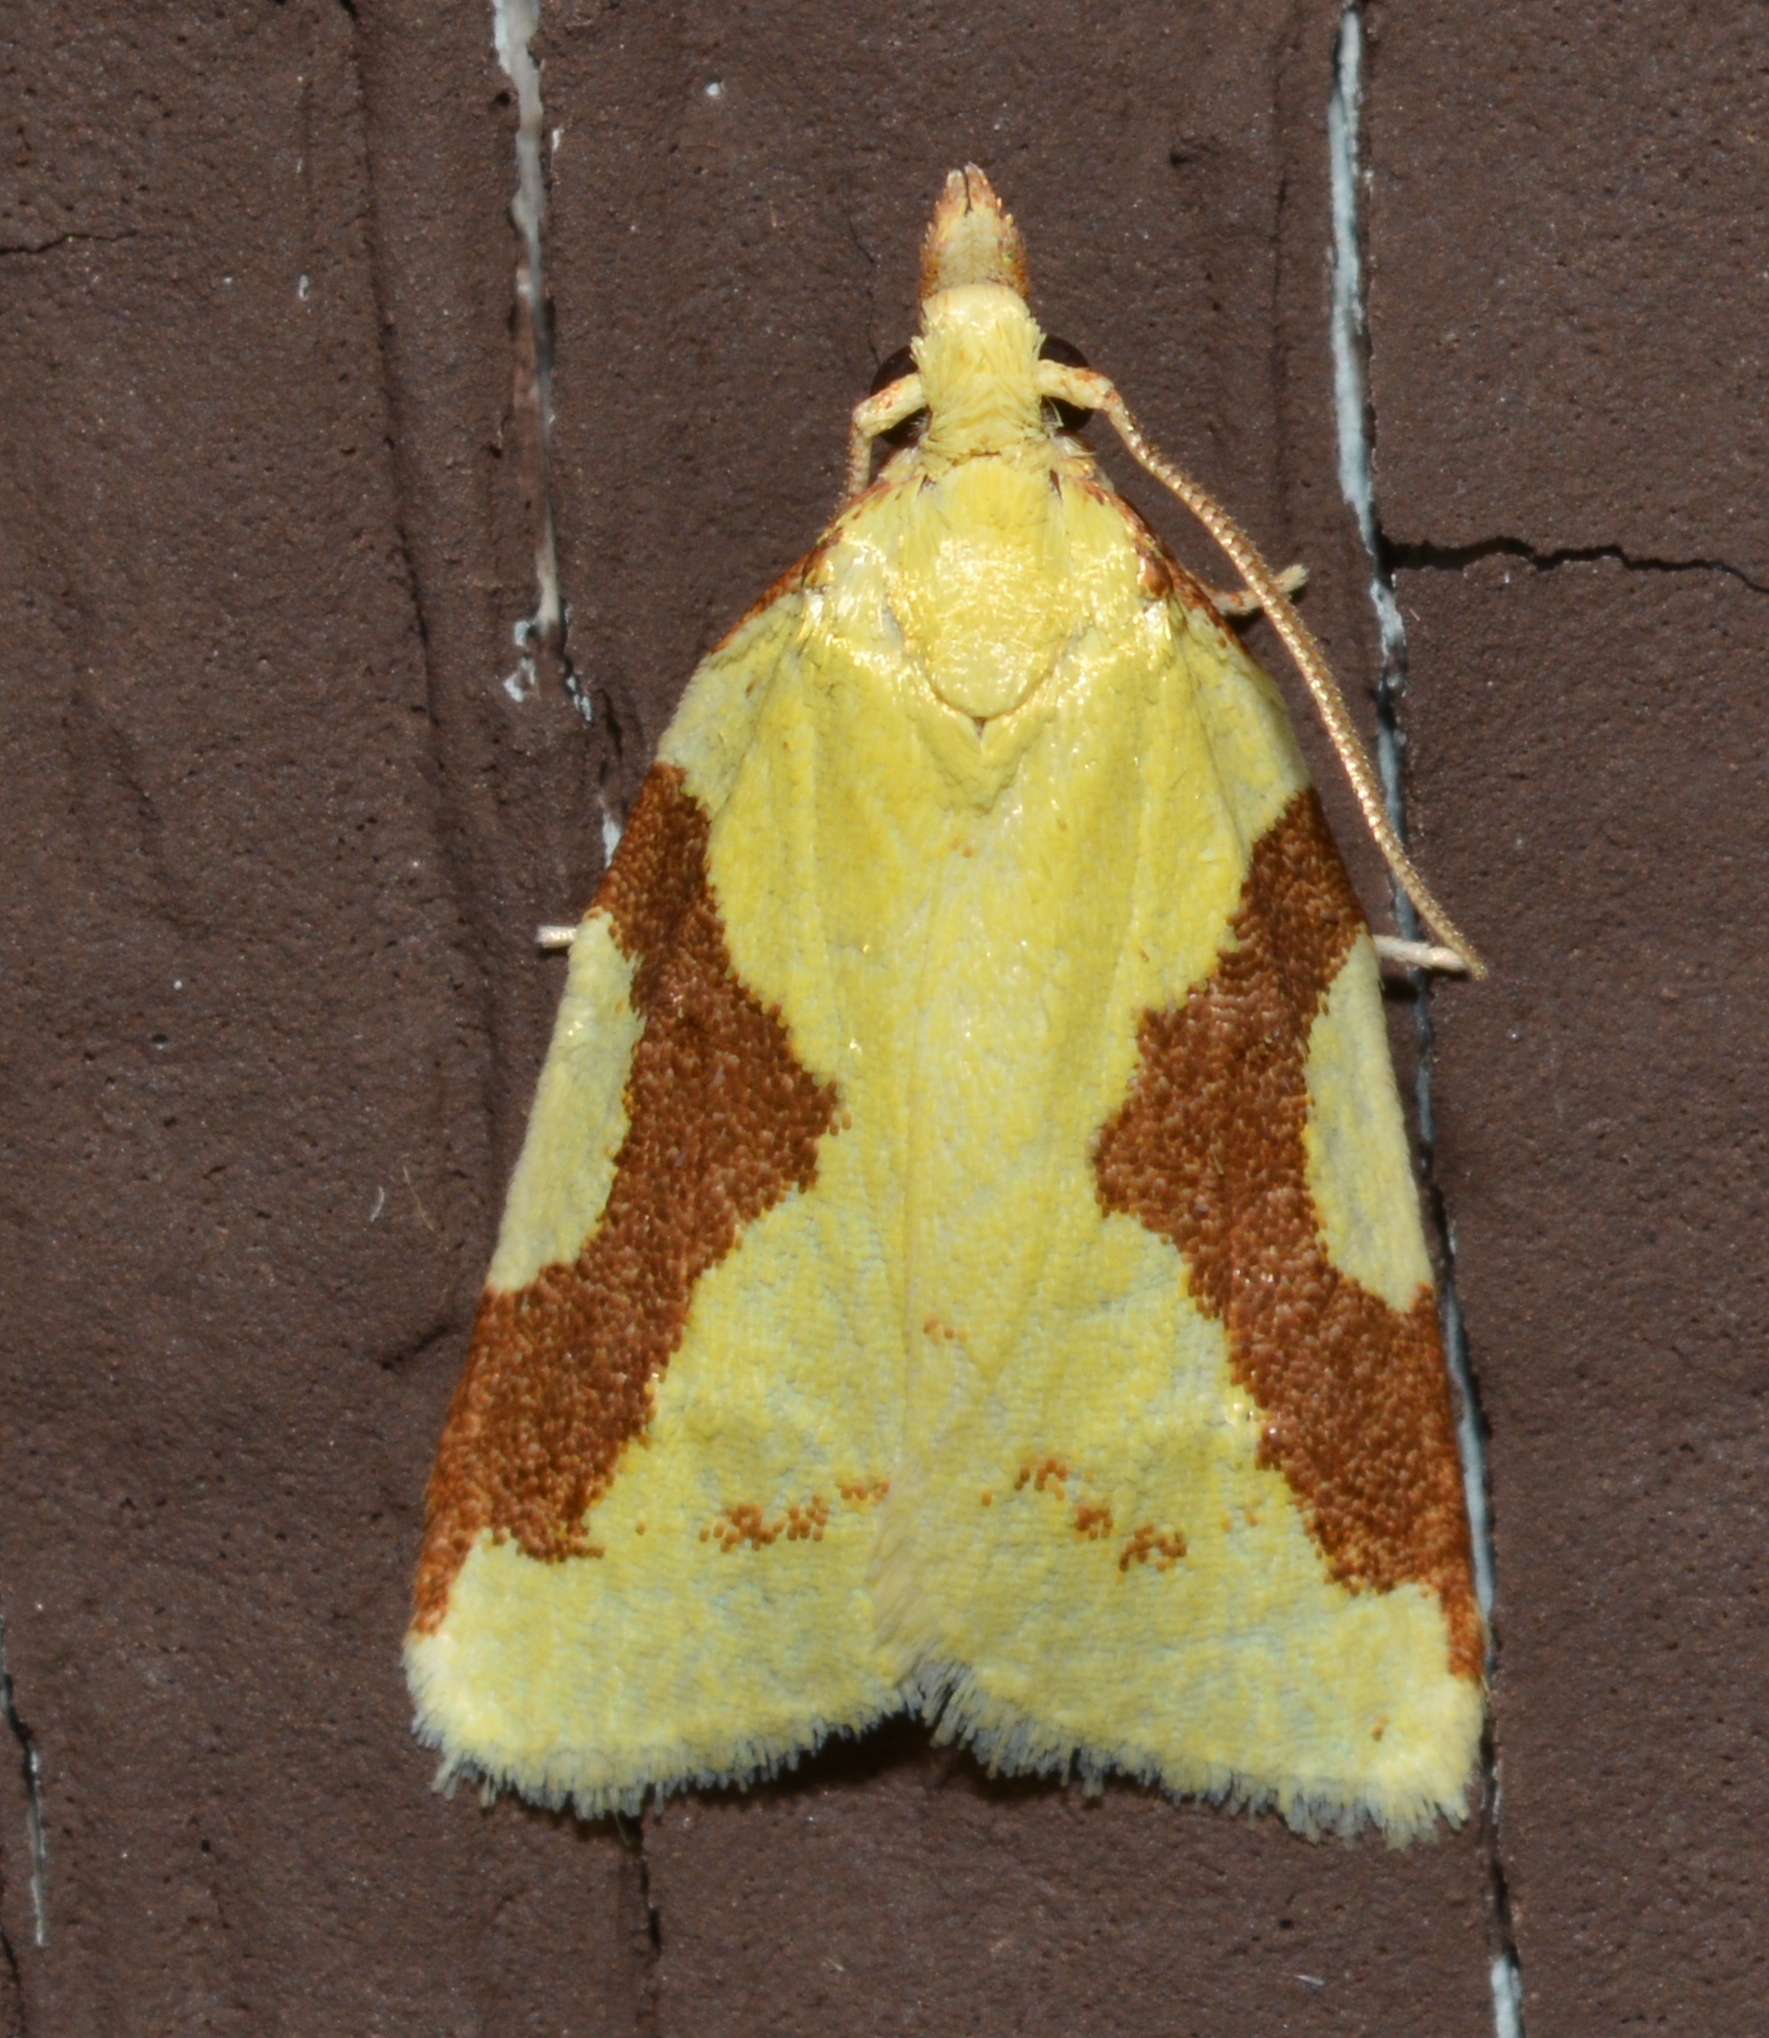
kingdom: Animalia
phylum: Arthropoda
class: Insecta
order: Lepidoptera
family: Tortricidae
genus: Cenopis
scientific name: Cenopis niveana
